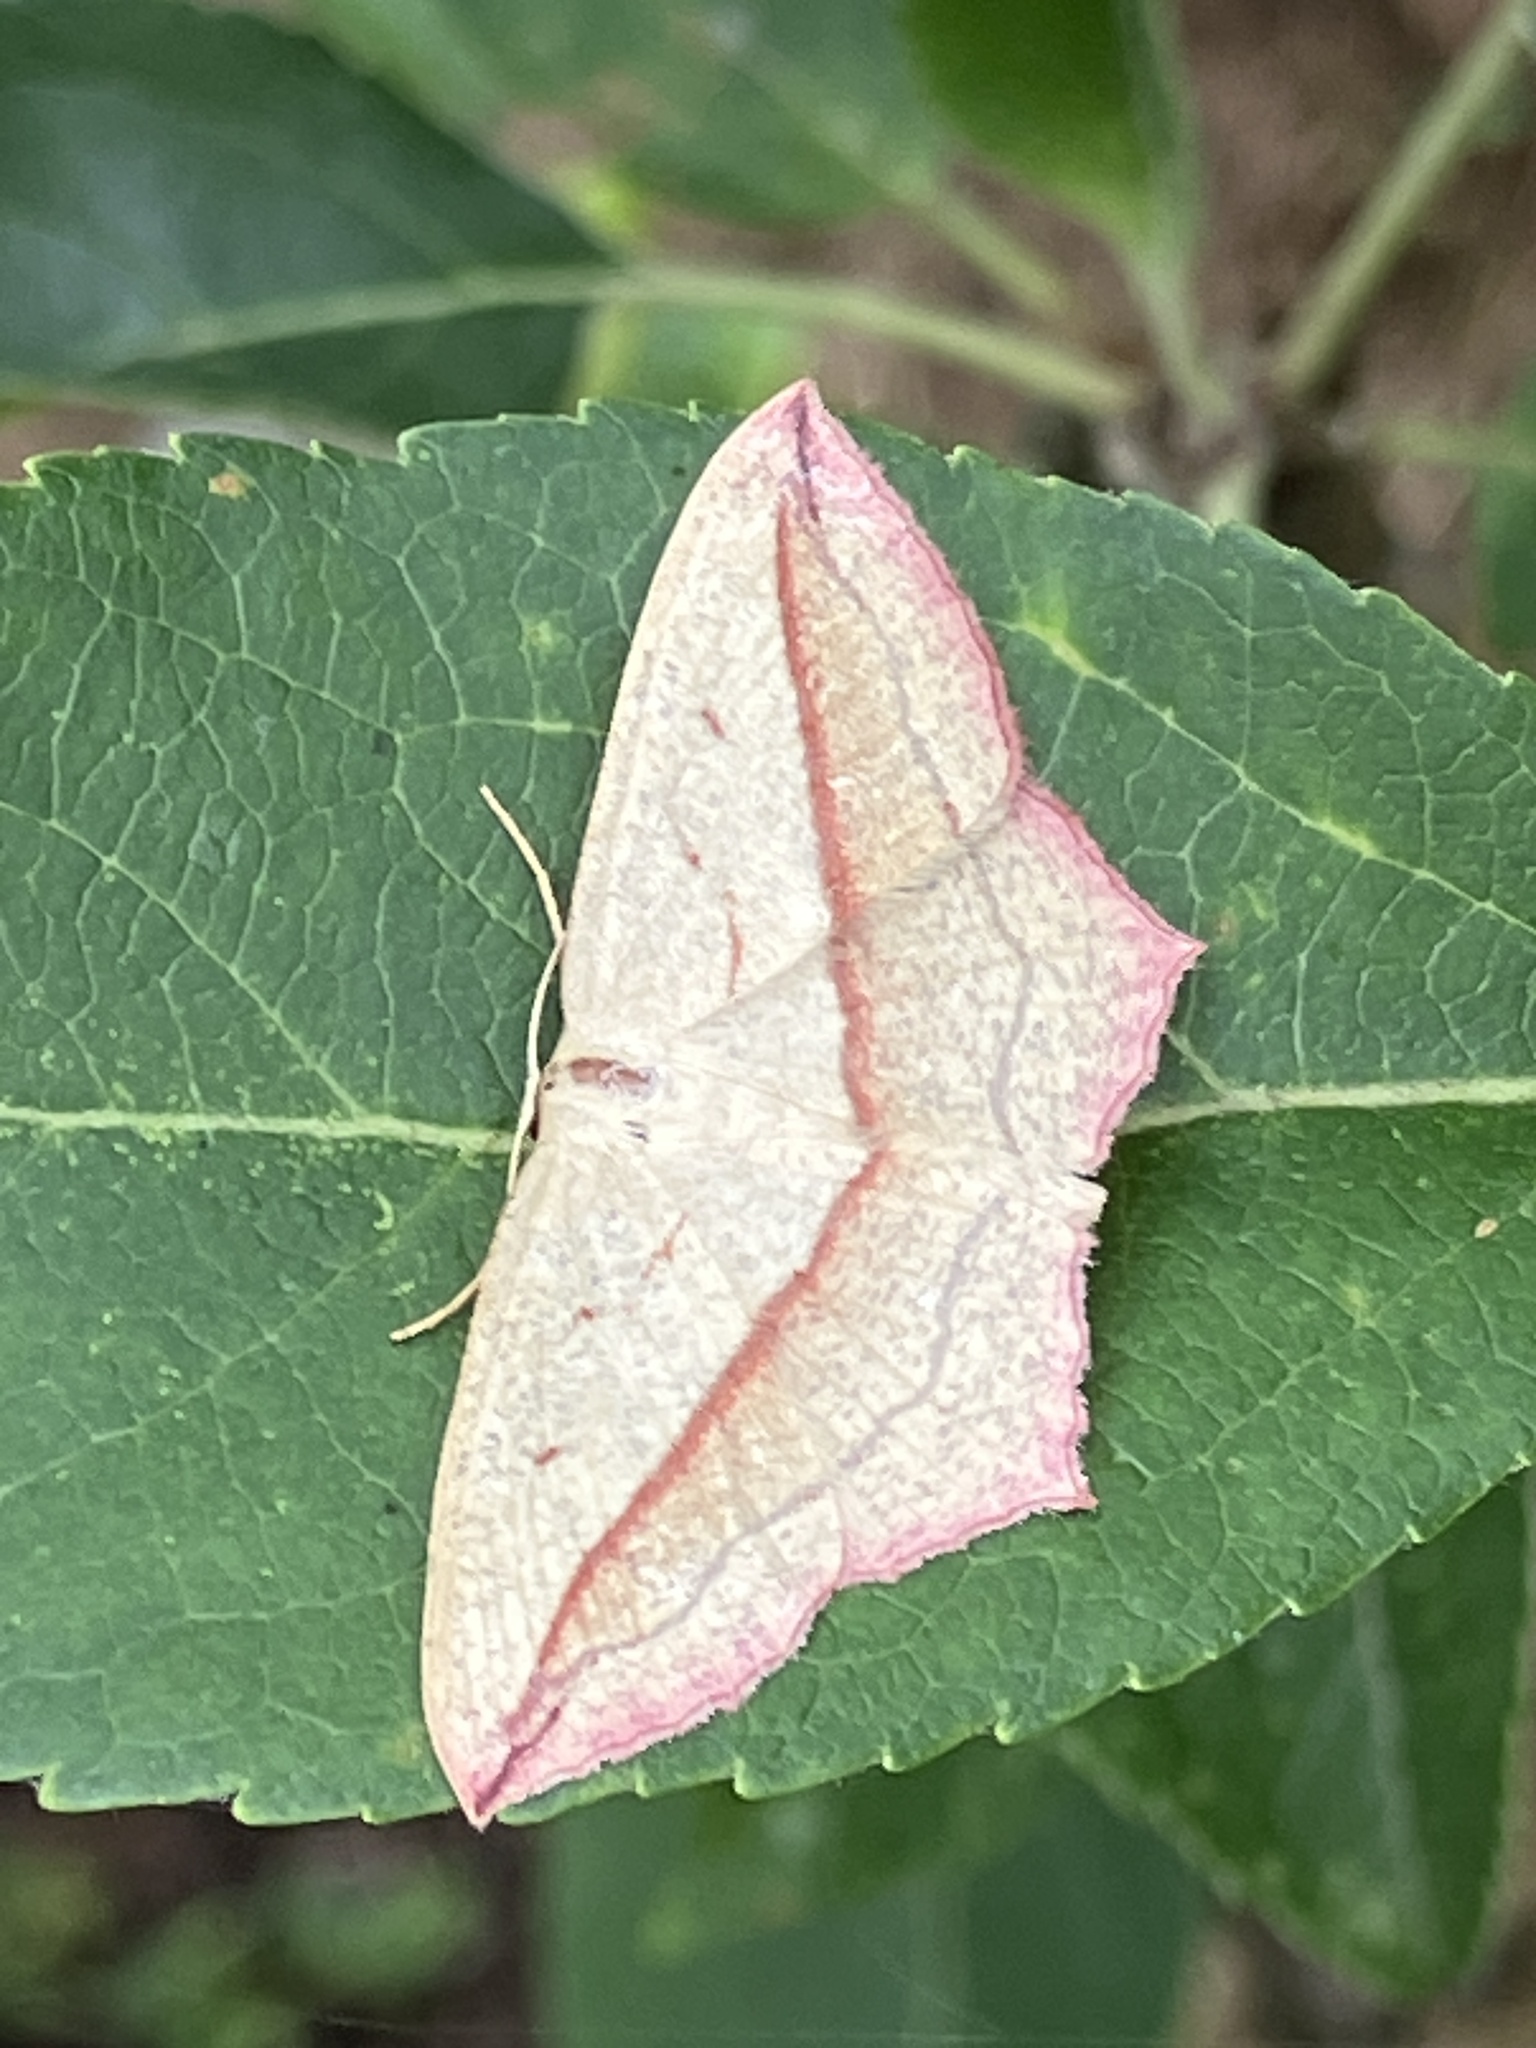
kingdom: Animalia
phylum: Arthropoda
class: Insecta
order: Lepidoptera
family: Geometridae
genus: Timandra
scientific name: Timandra comae
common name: Blood-vein
